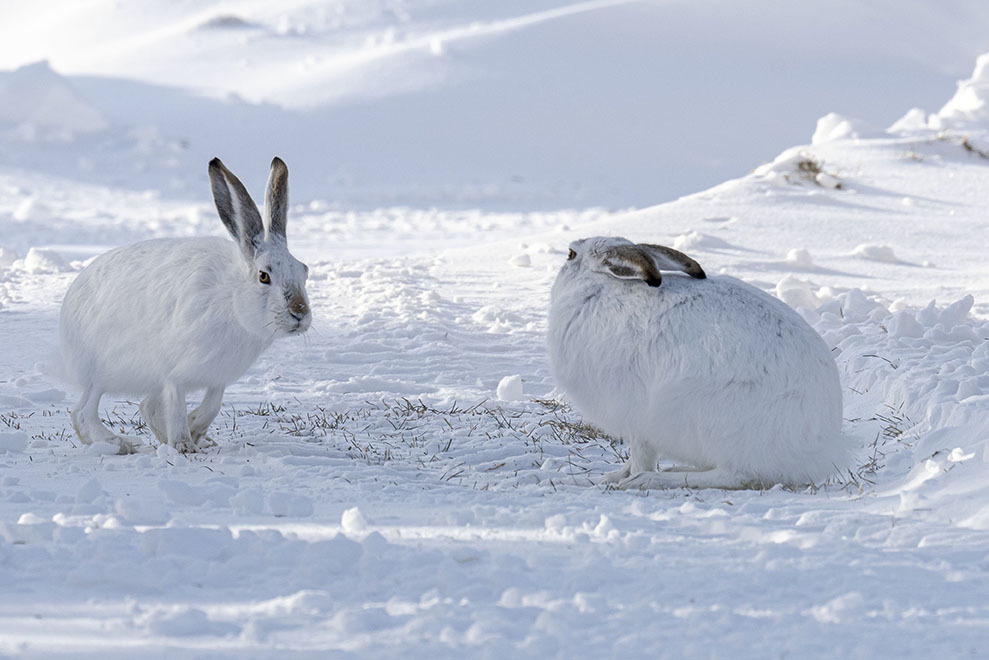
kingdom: Animalia
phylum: Chordata
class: Mammalia
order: Lagomorpha
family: Leporidae
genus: Lepus
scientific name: Lepus townsendii
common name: White-tailed jackrabbit
